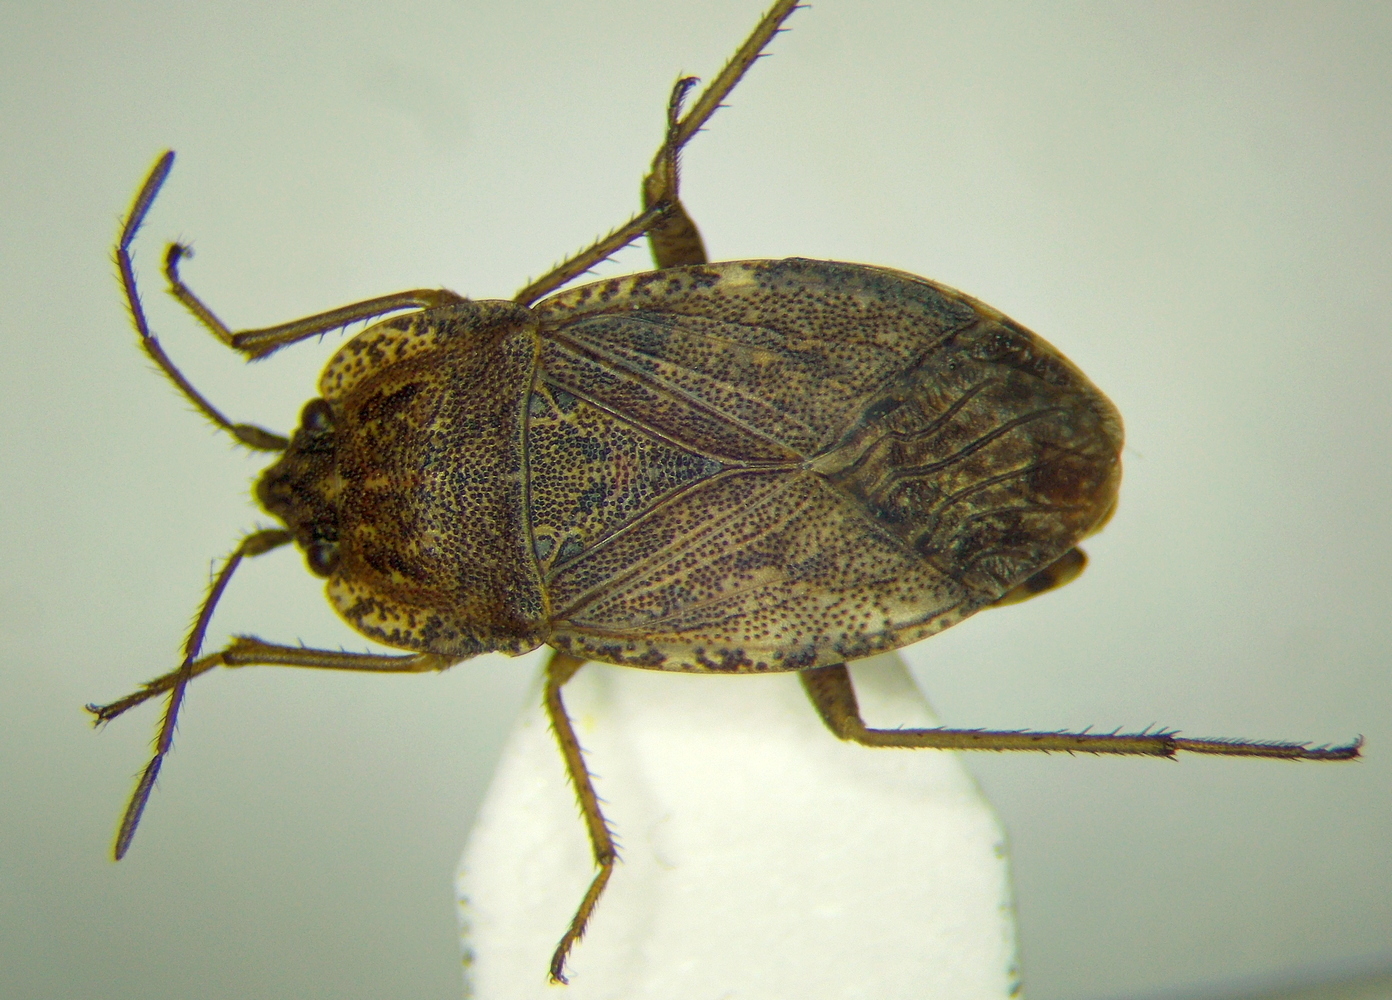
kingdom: Animalia
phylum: Arthropoda
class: Insecta
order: Hemiptera
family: Rhyparochromidae
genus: Emblethis
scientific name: Emblethis verbasci
